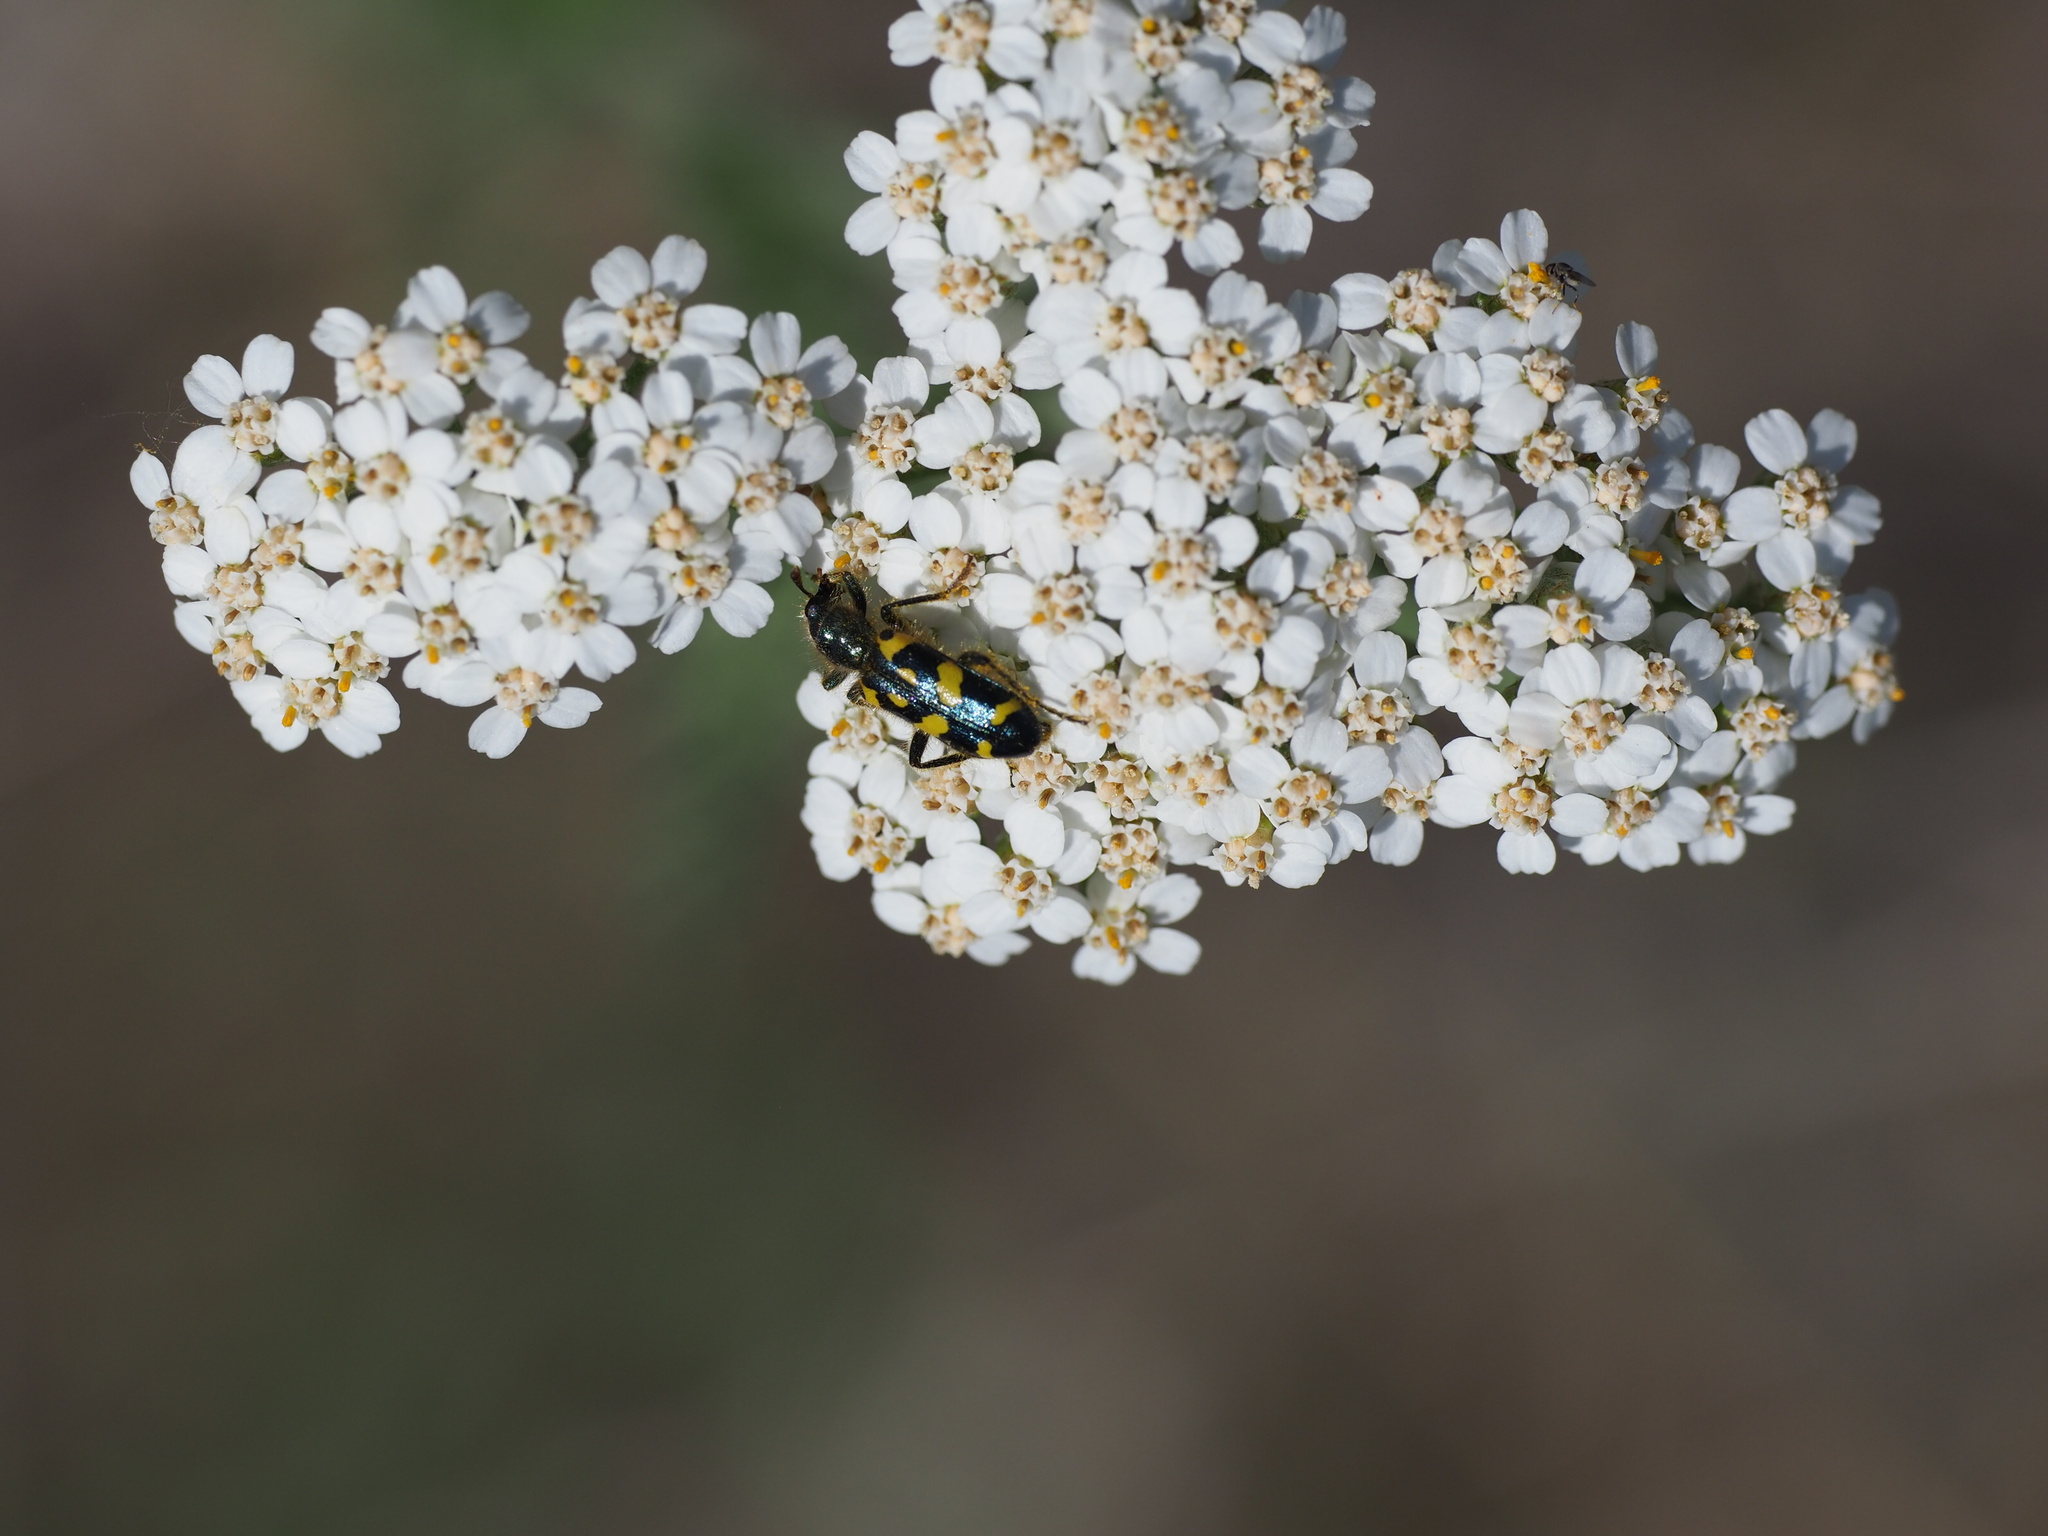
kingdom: Plantae
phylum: Tracheophyta
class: Magnoliopsida
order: Asterales
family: Asteraceae
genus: Achillea
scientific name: Achillea millefolium
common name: Yarrow
